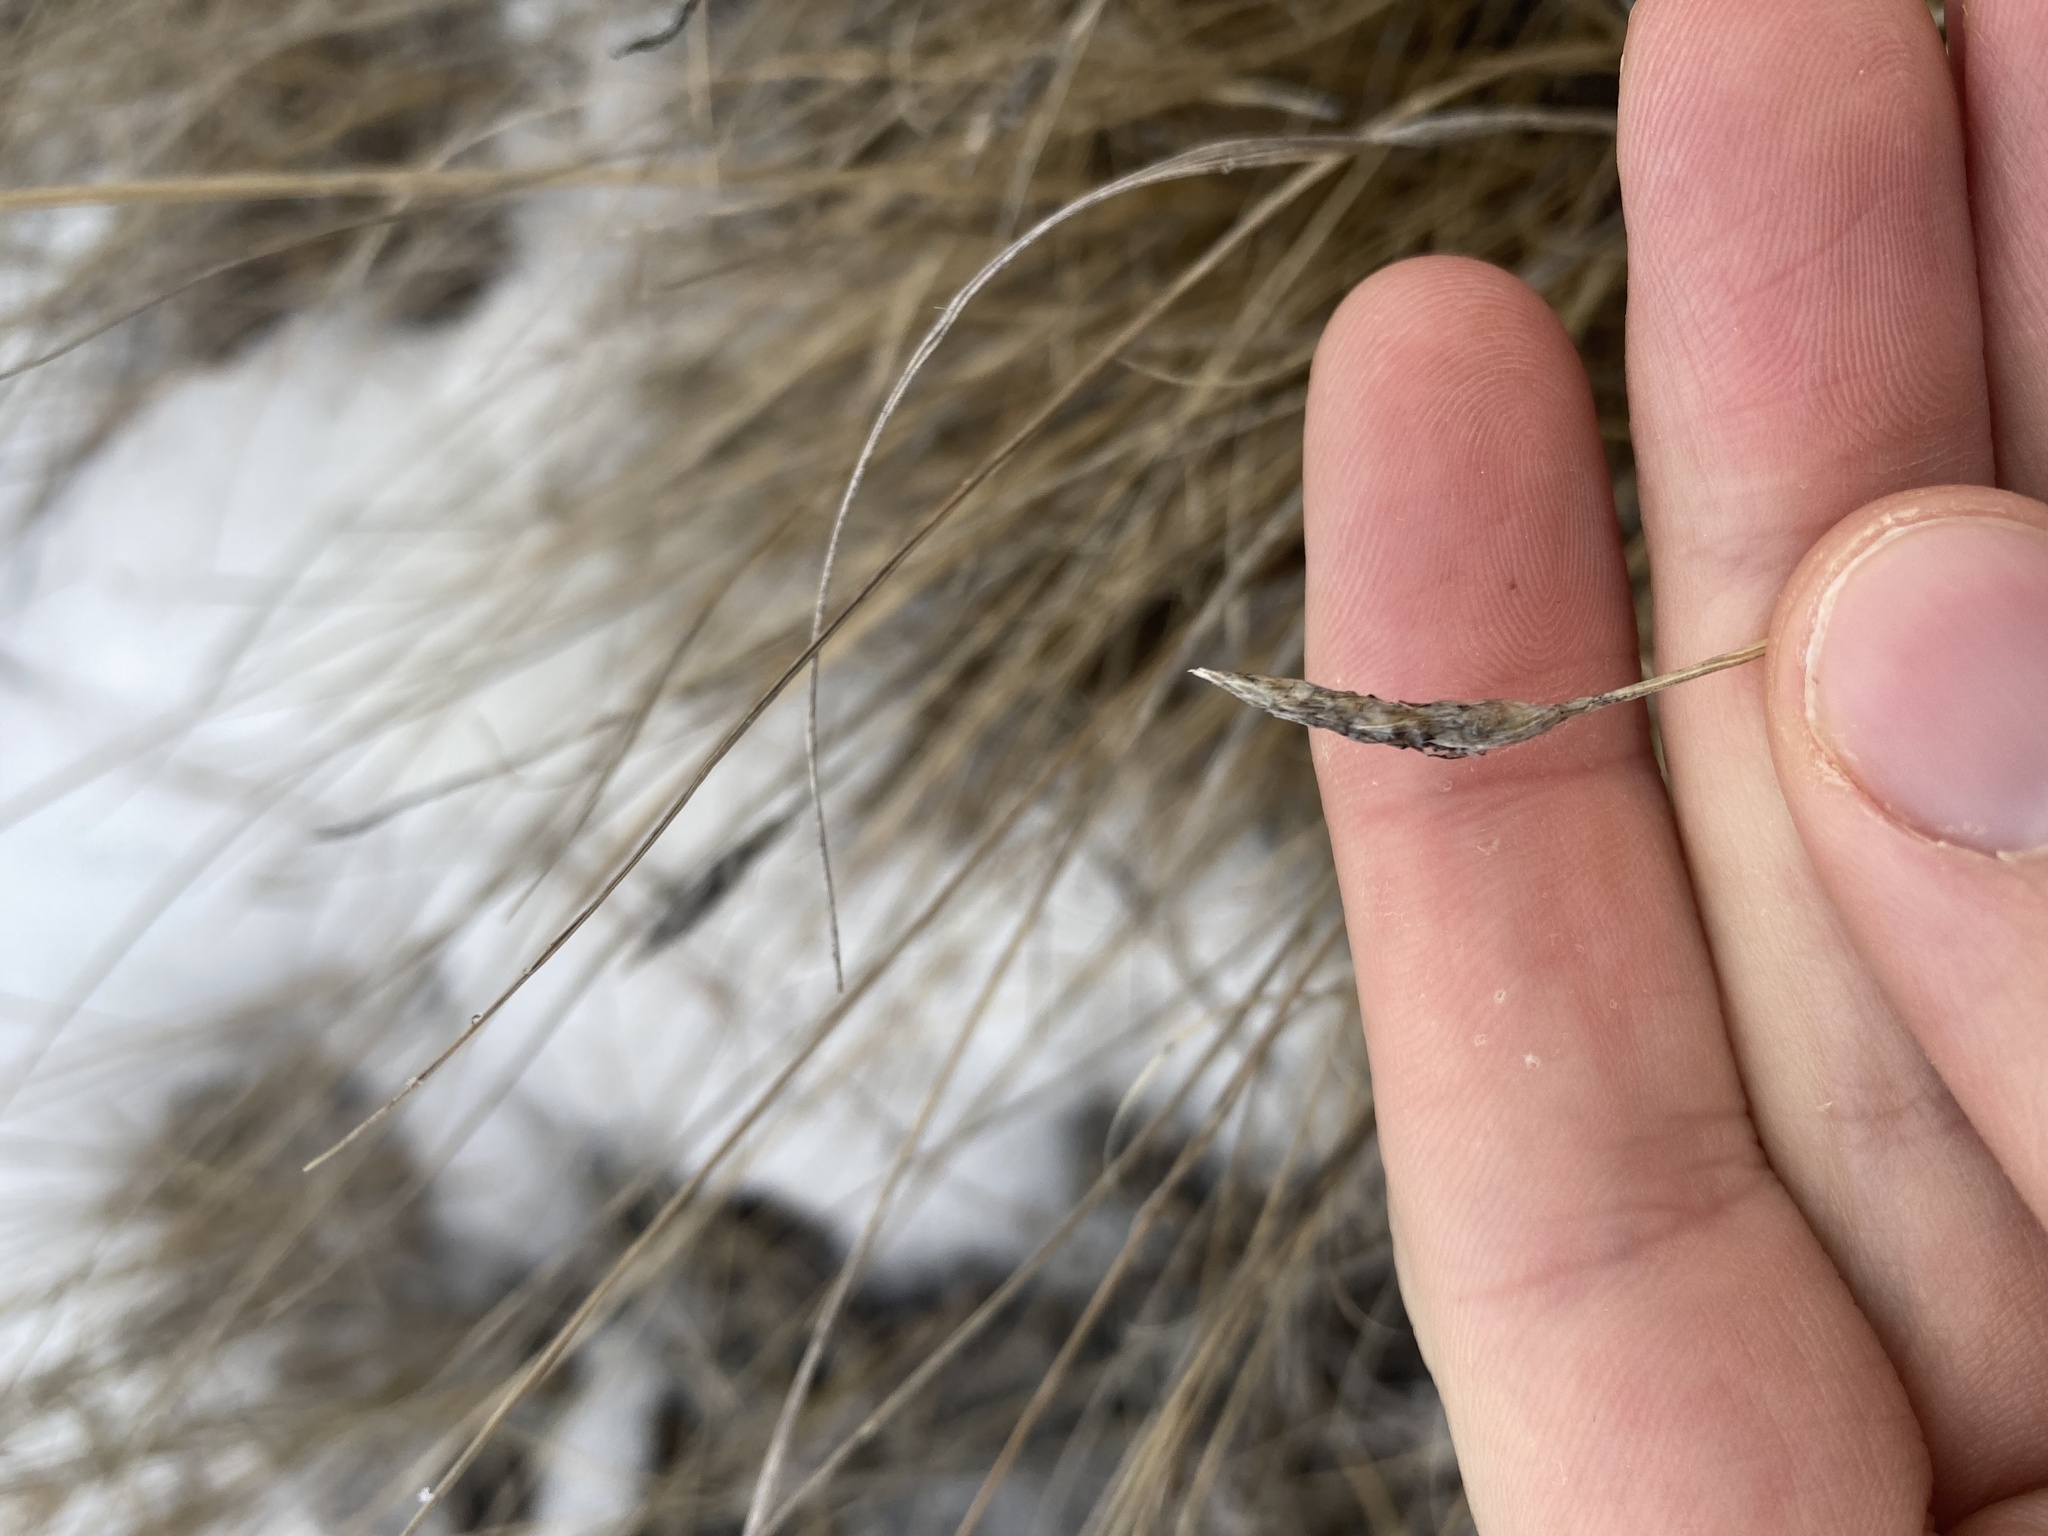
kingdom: Plantae
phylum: Tracheophyta
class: Liliopsida
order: Poales
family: Cyperaceae
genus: Carex
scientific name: Carex filifolia
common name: Threadleaf sedge
